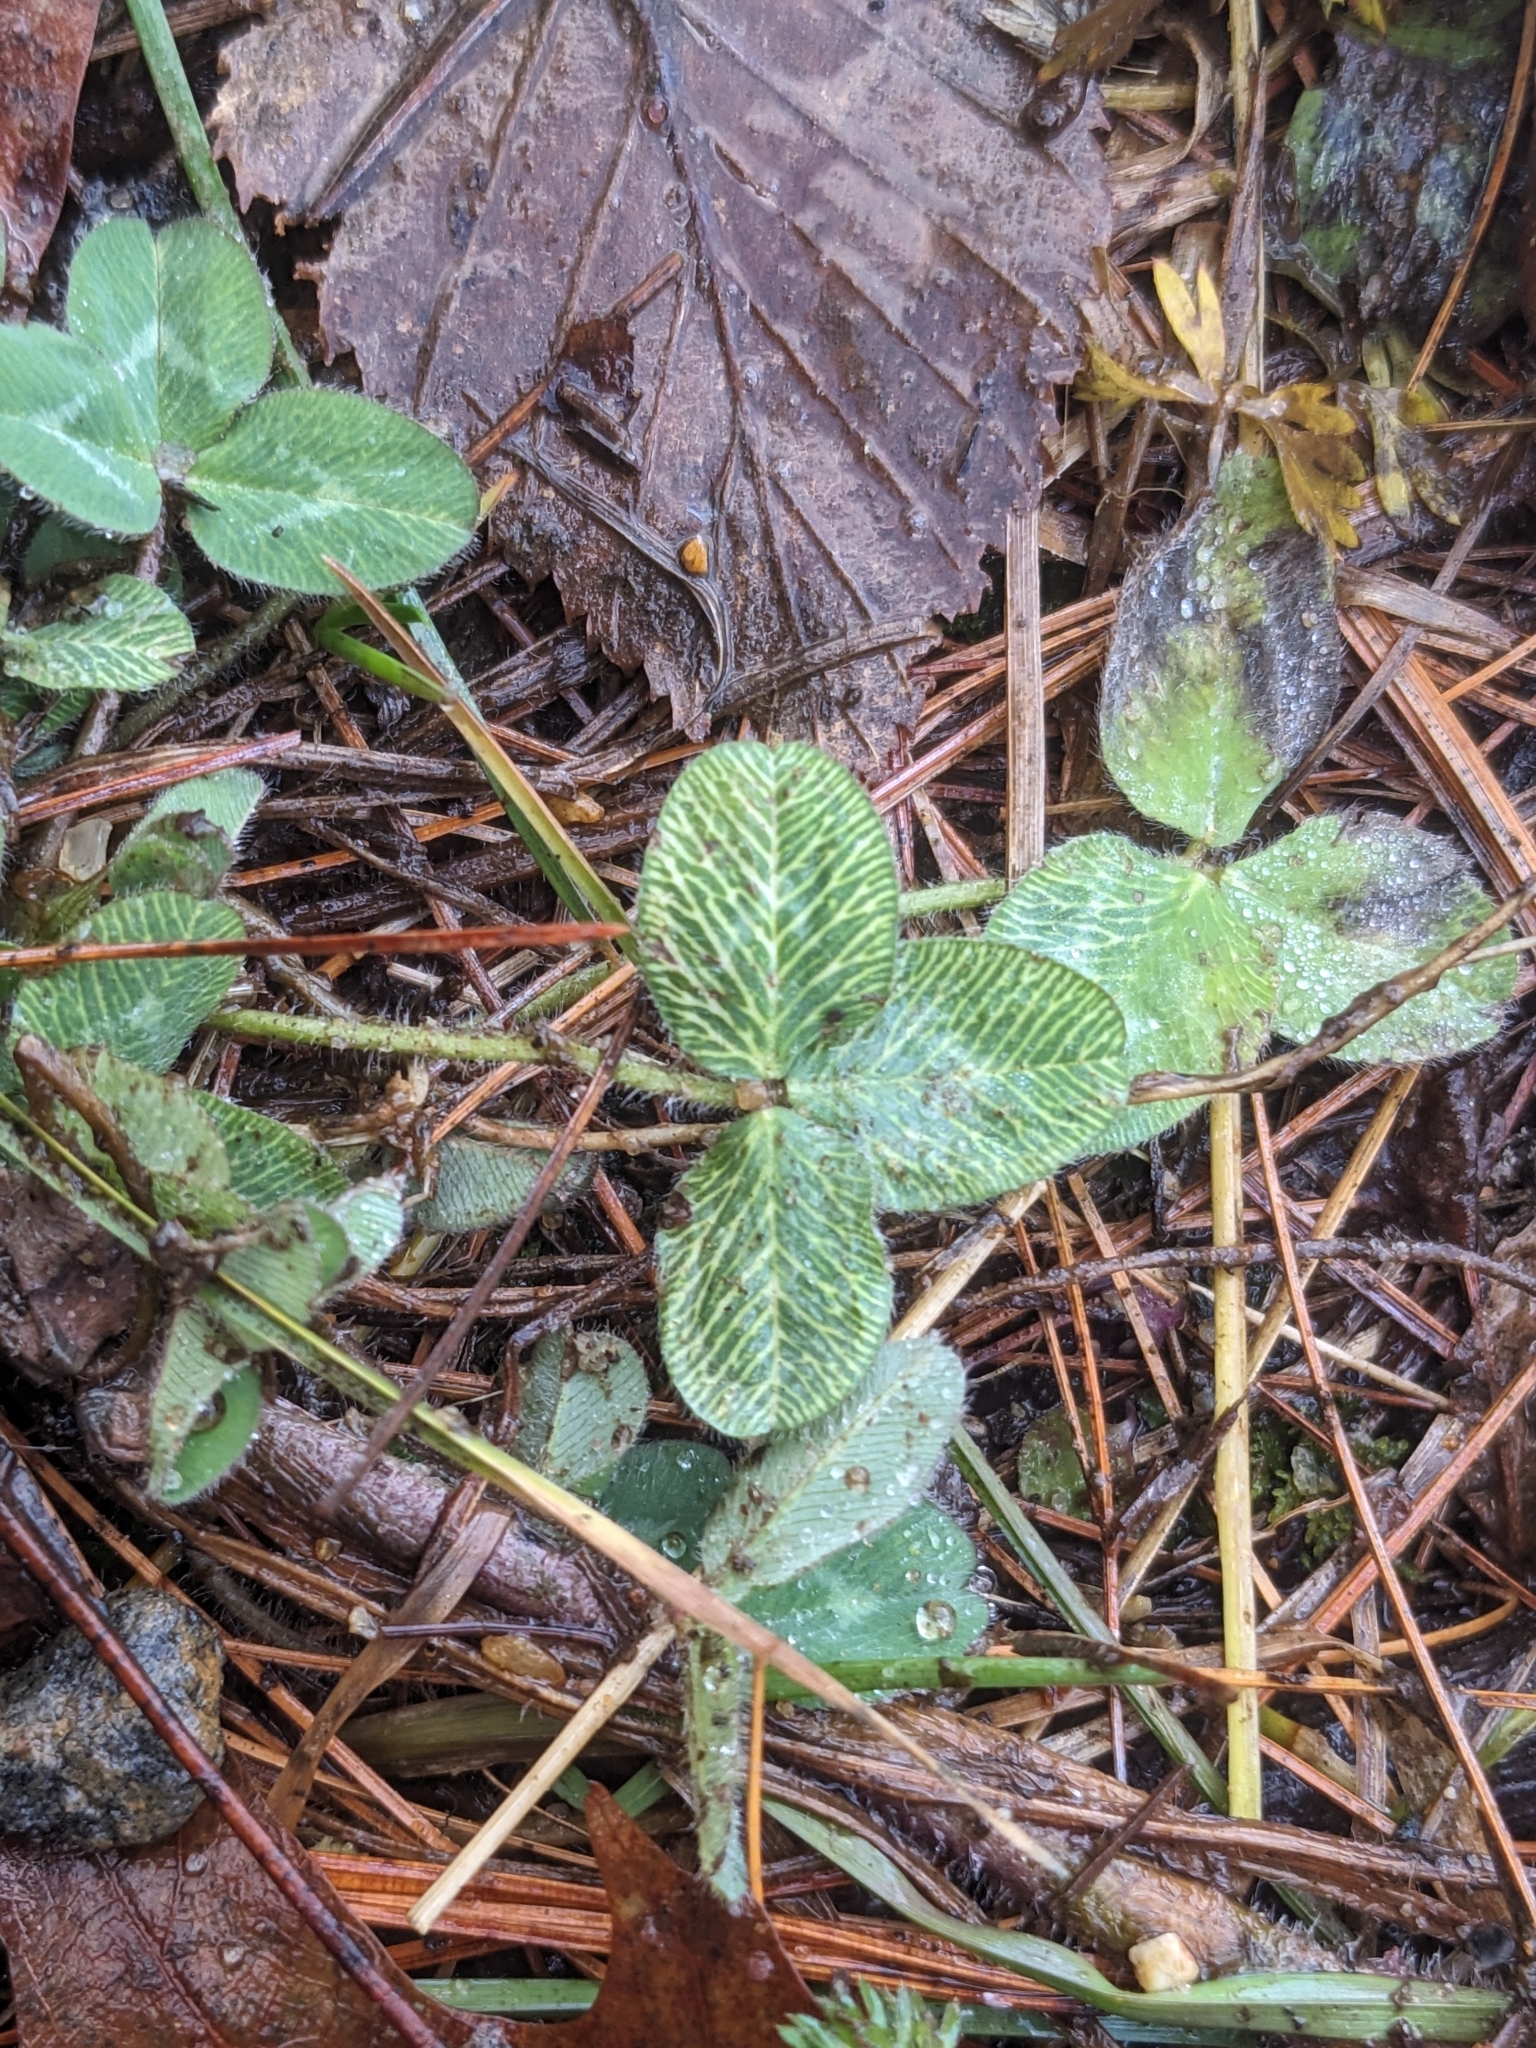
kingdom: Plantae
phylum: Tracheophyta
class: Magnoliopsida
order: Fabales
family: Fabaceae
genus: Trifolium
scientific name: Trifolium pratense
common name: Red clover
